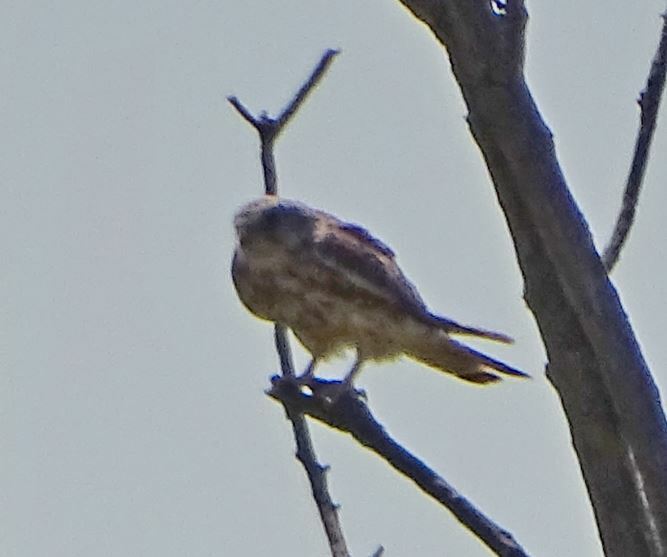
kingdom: Animalia
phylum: Chordata
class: Aves
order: Falconiformes
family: Falconidae
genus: Falco
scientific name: Falco tinnunculus
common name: Common kestrel
